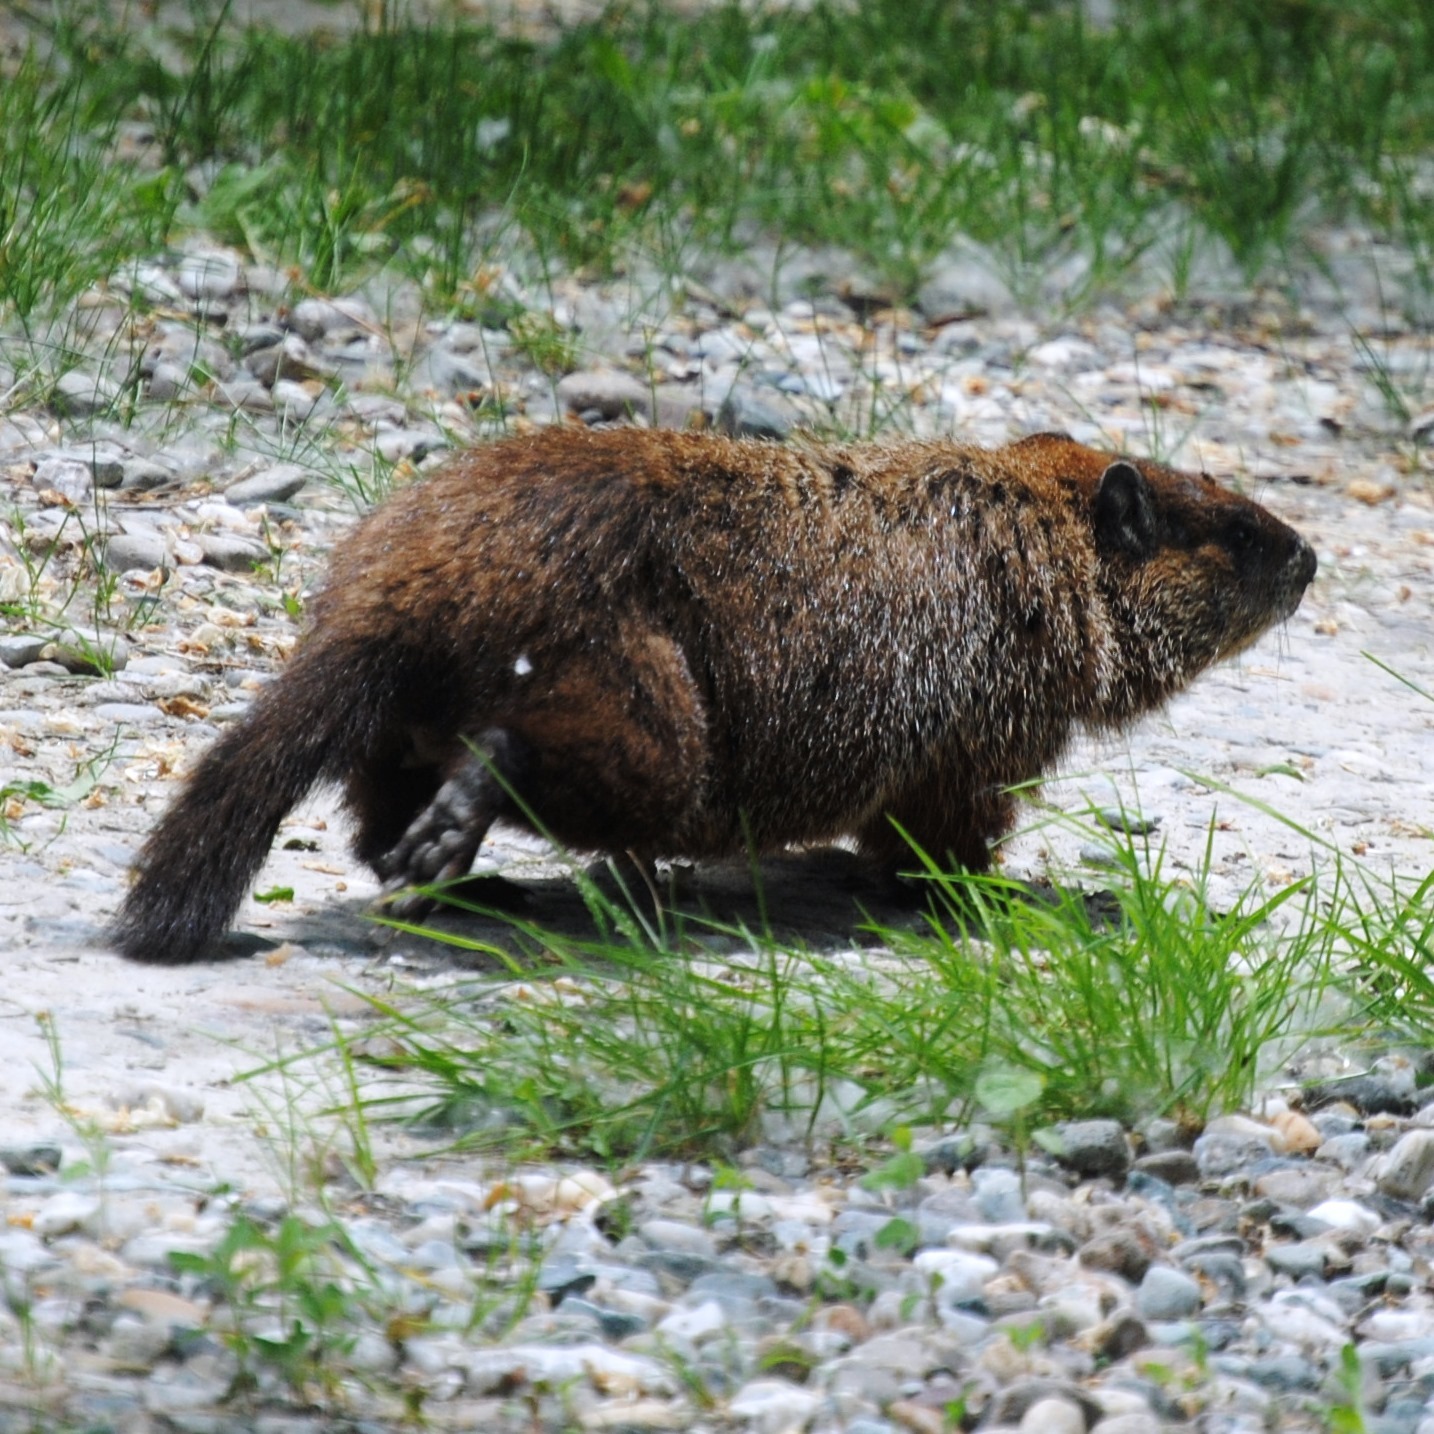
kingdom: Animalia
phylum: Chordata
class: Mammalia
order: Rodentia
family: Sciuridae
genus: Marmota
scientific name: Marmota monax
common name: Groundhog
